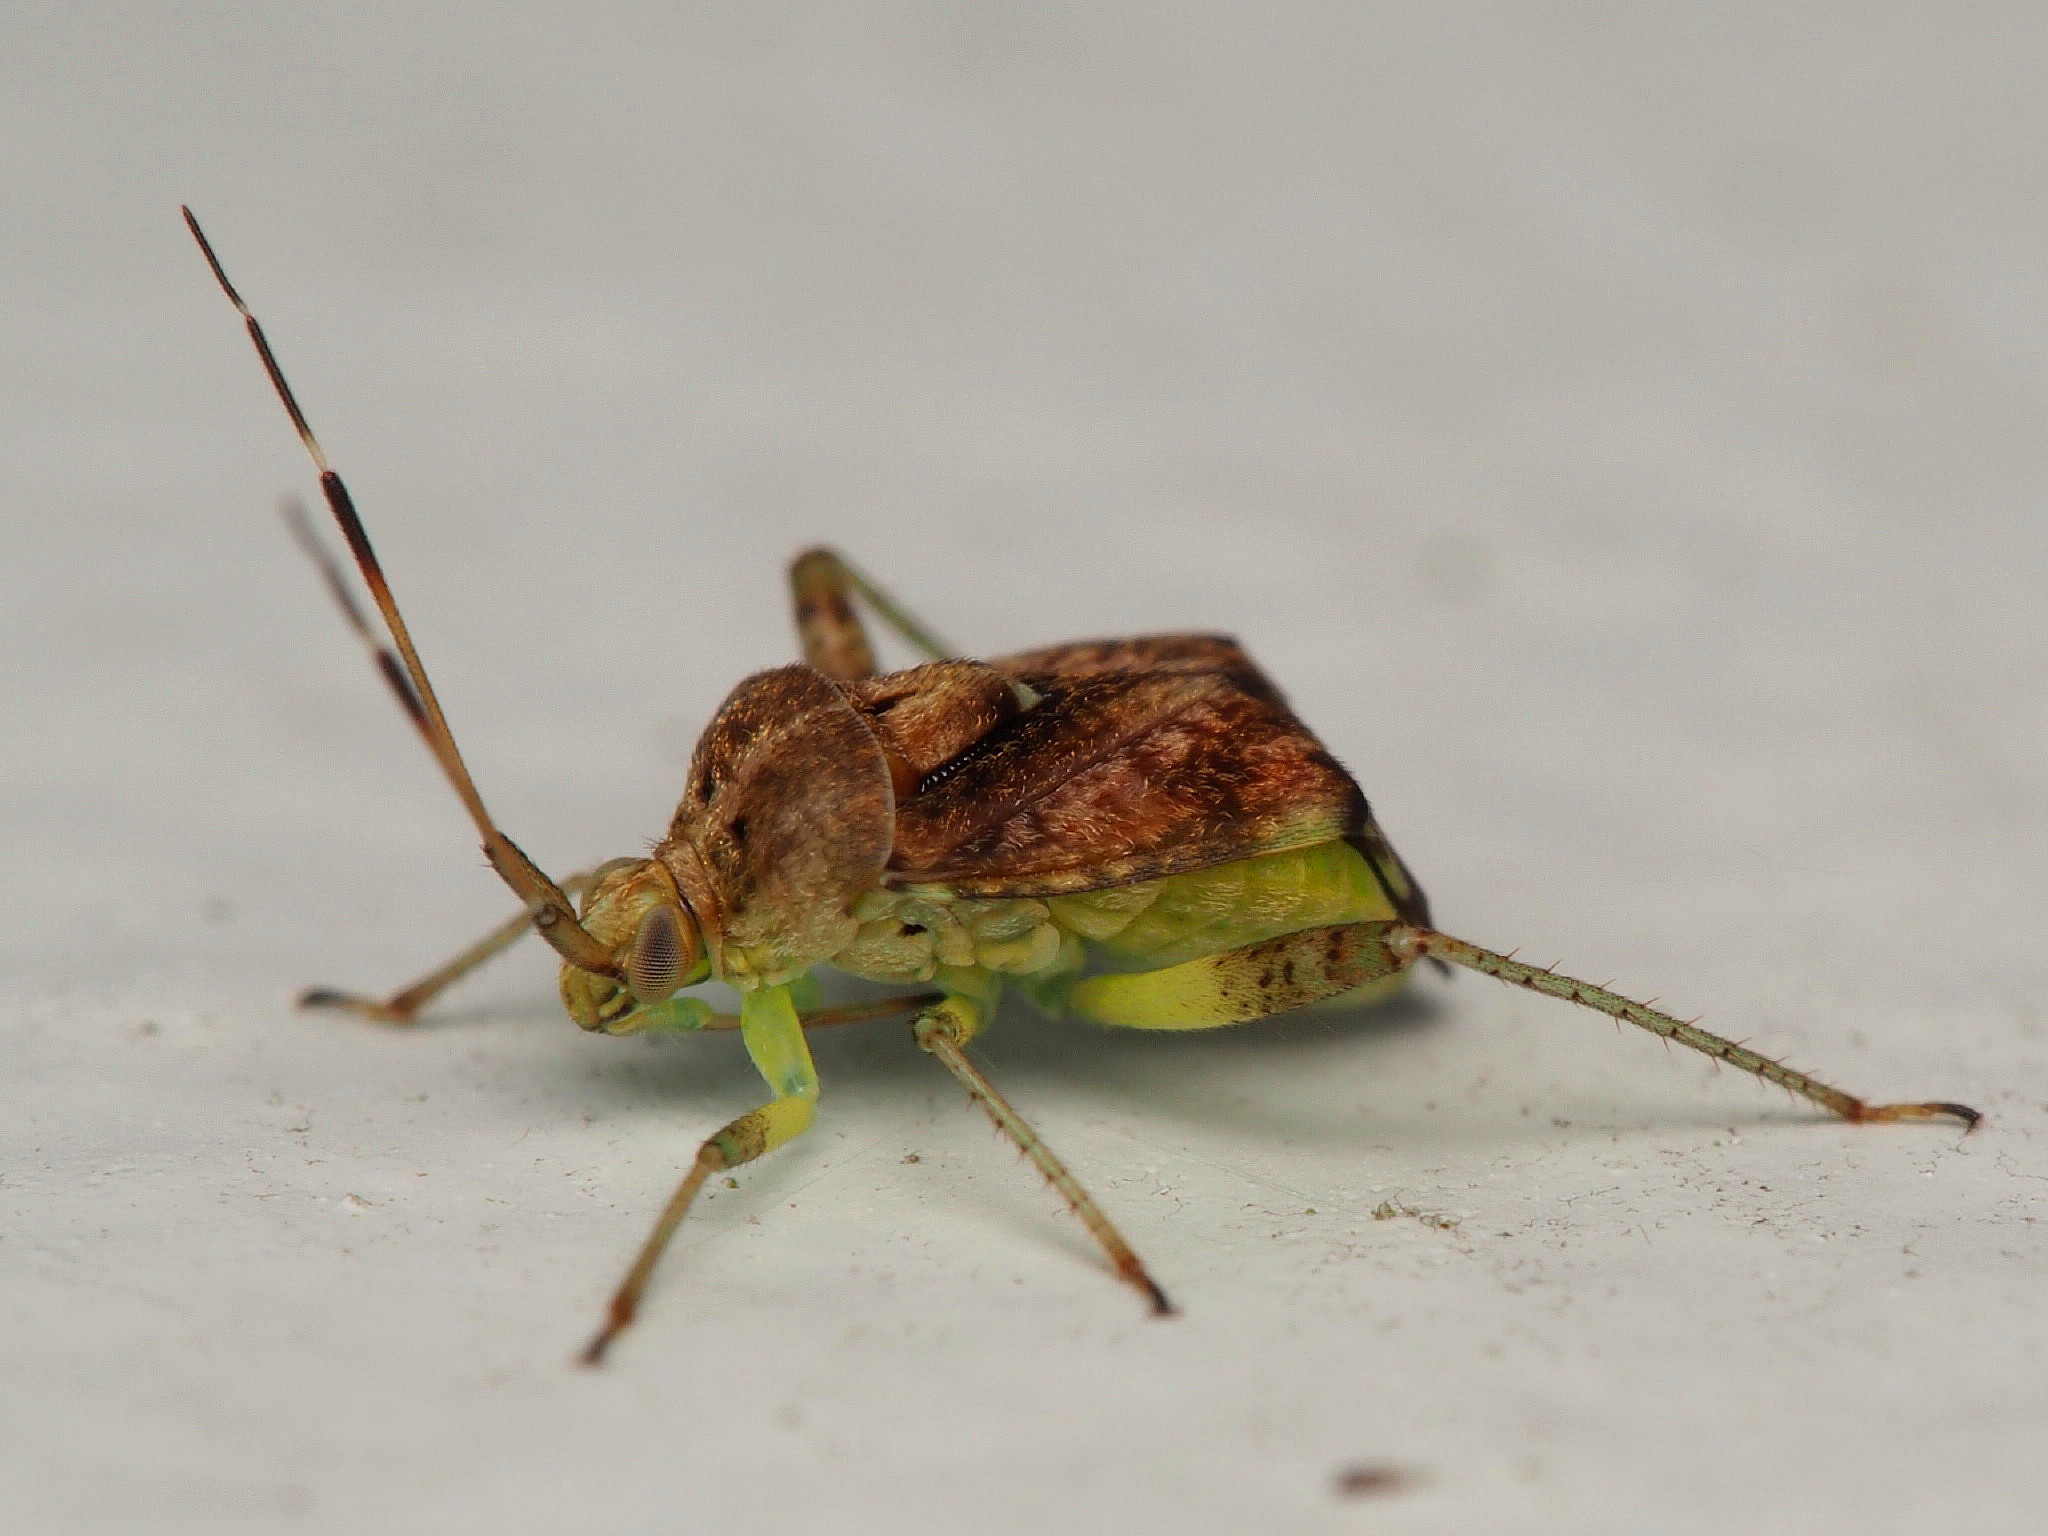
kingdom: Animalia
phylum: Arthropoda
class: Insecta
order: Hemiptera
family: Miridae
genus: Sidnia
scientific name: Sidnia kinbergi
